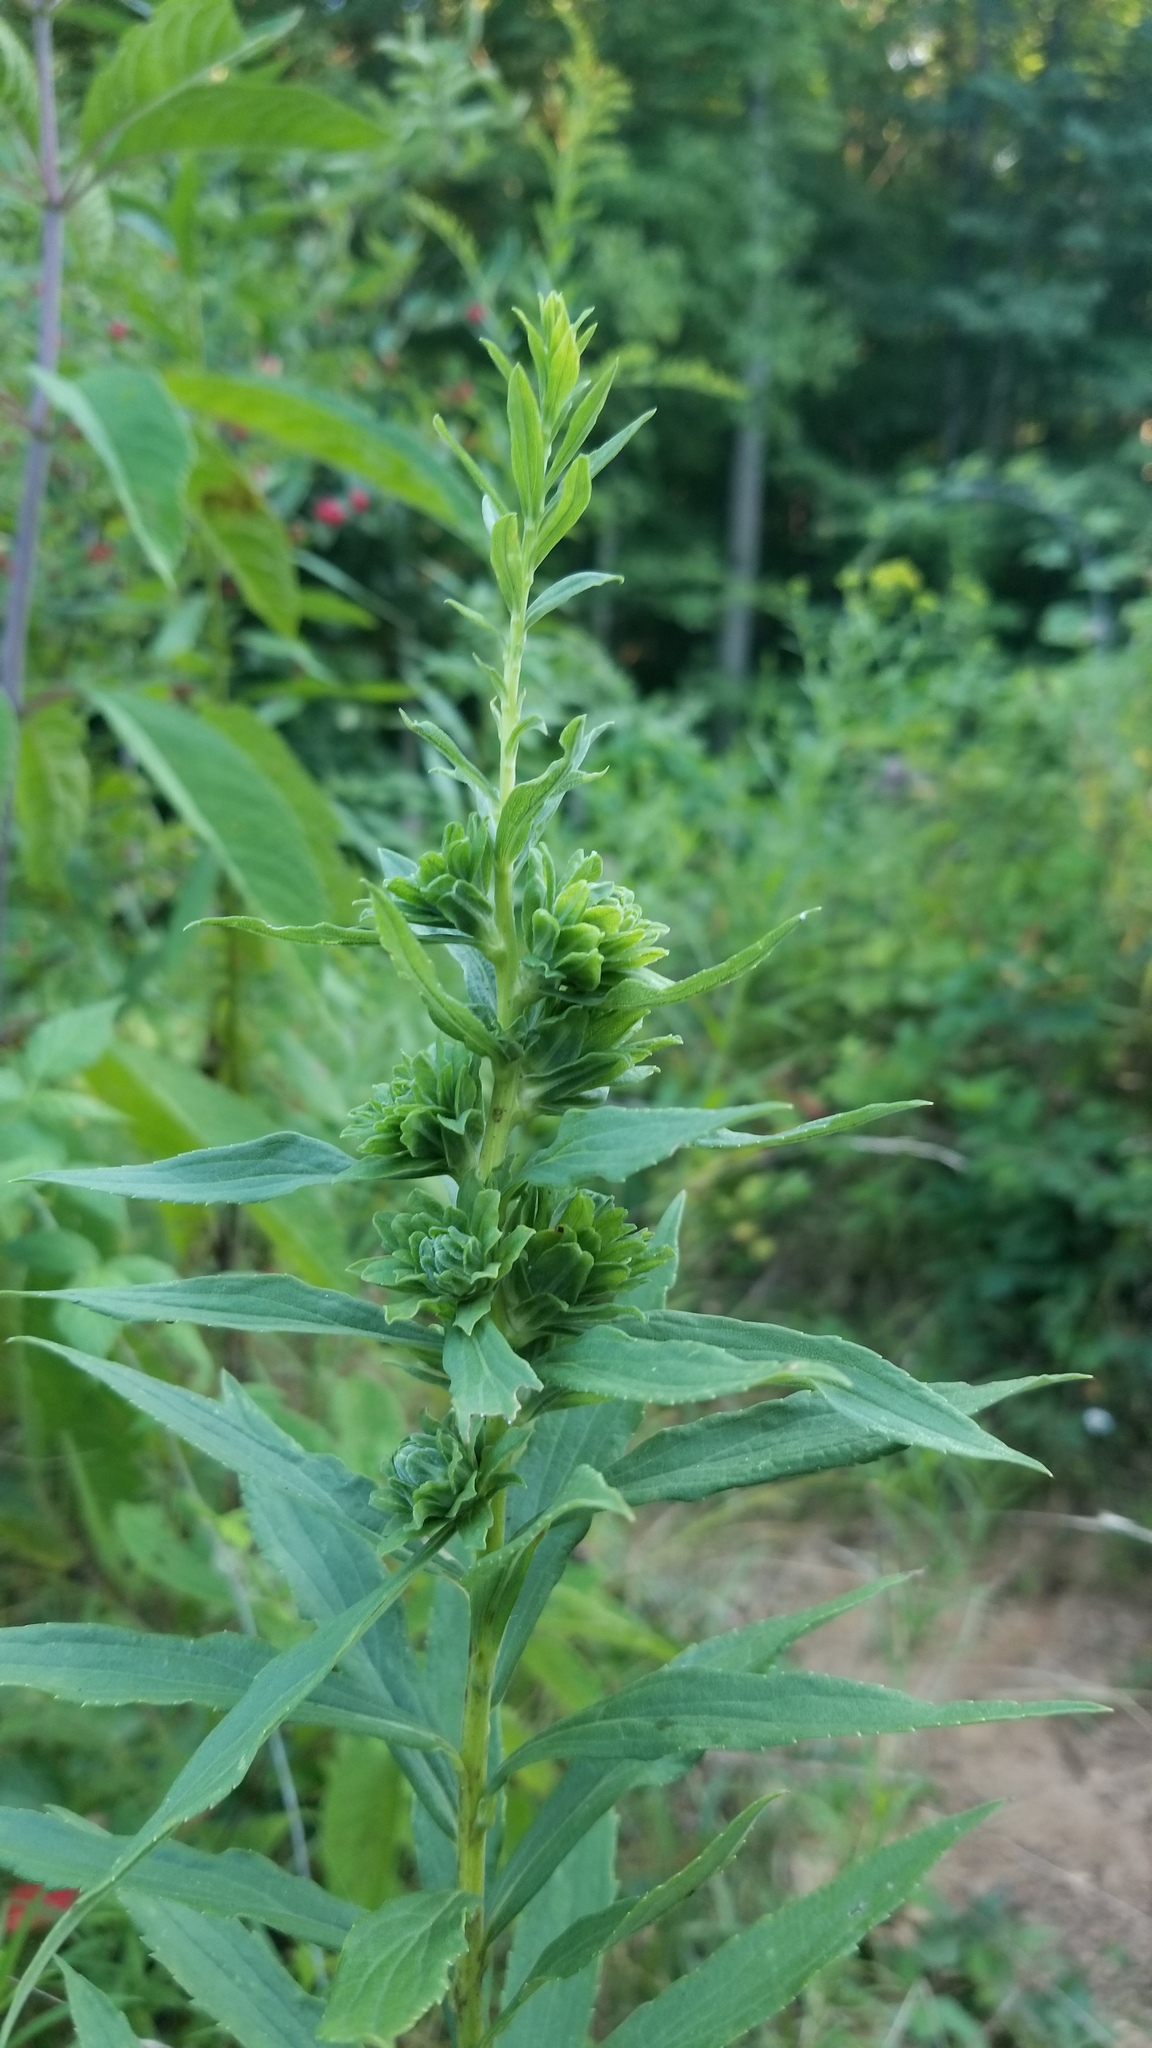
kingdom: Animalia
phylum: Arthropoda
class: Insecta
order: Diptera
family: Tephritidae
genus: Procecidochares
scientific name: Procecidochares atra
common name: Goldenrod brussels sprout gall fly
